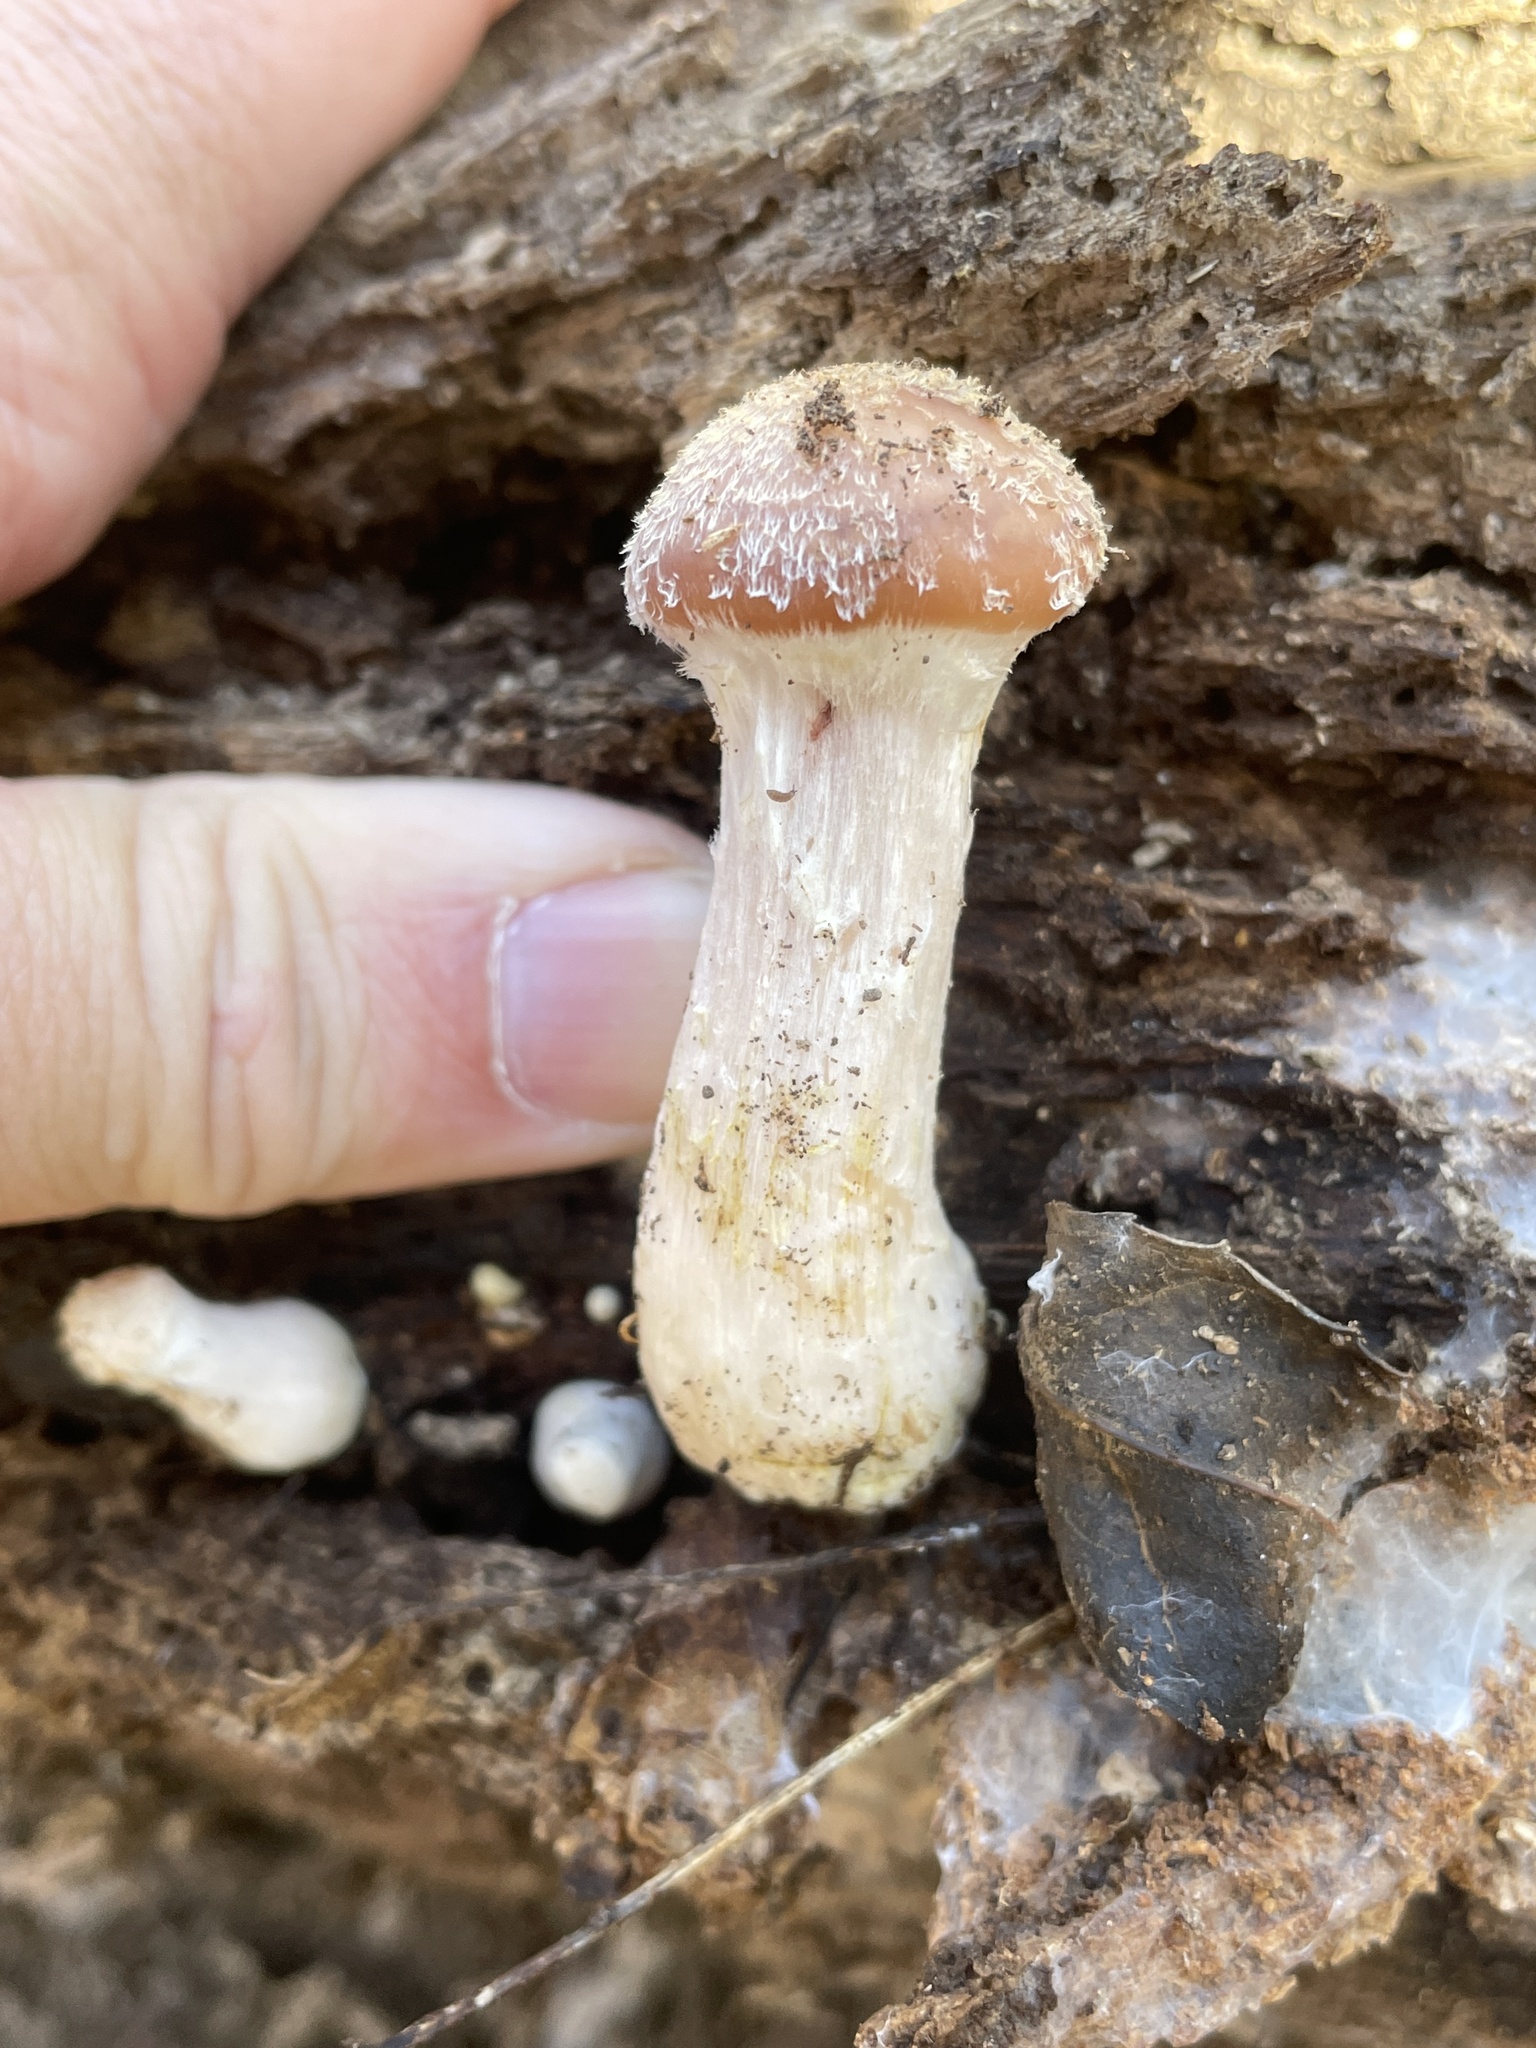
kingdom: Fungi
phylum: Basidiomycota
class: Agaricomycetes
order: Agaricales
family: Physalacriaceae
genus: Armillaria
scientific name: Armillaria mellea
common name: Honey fungus
